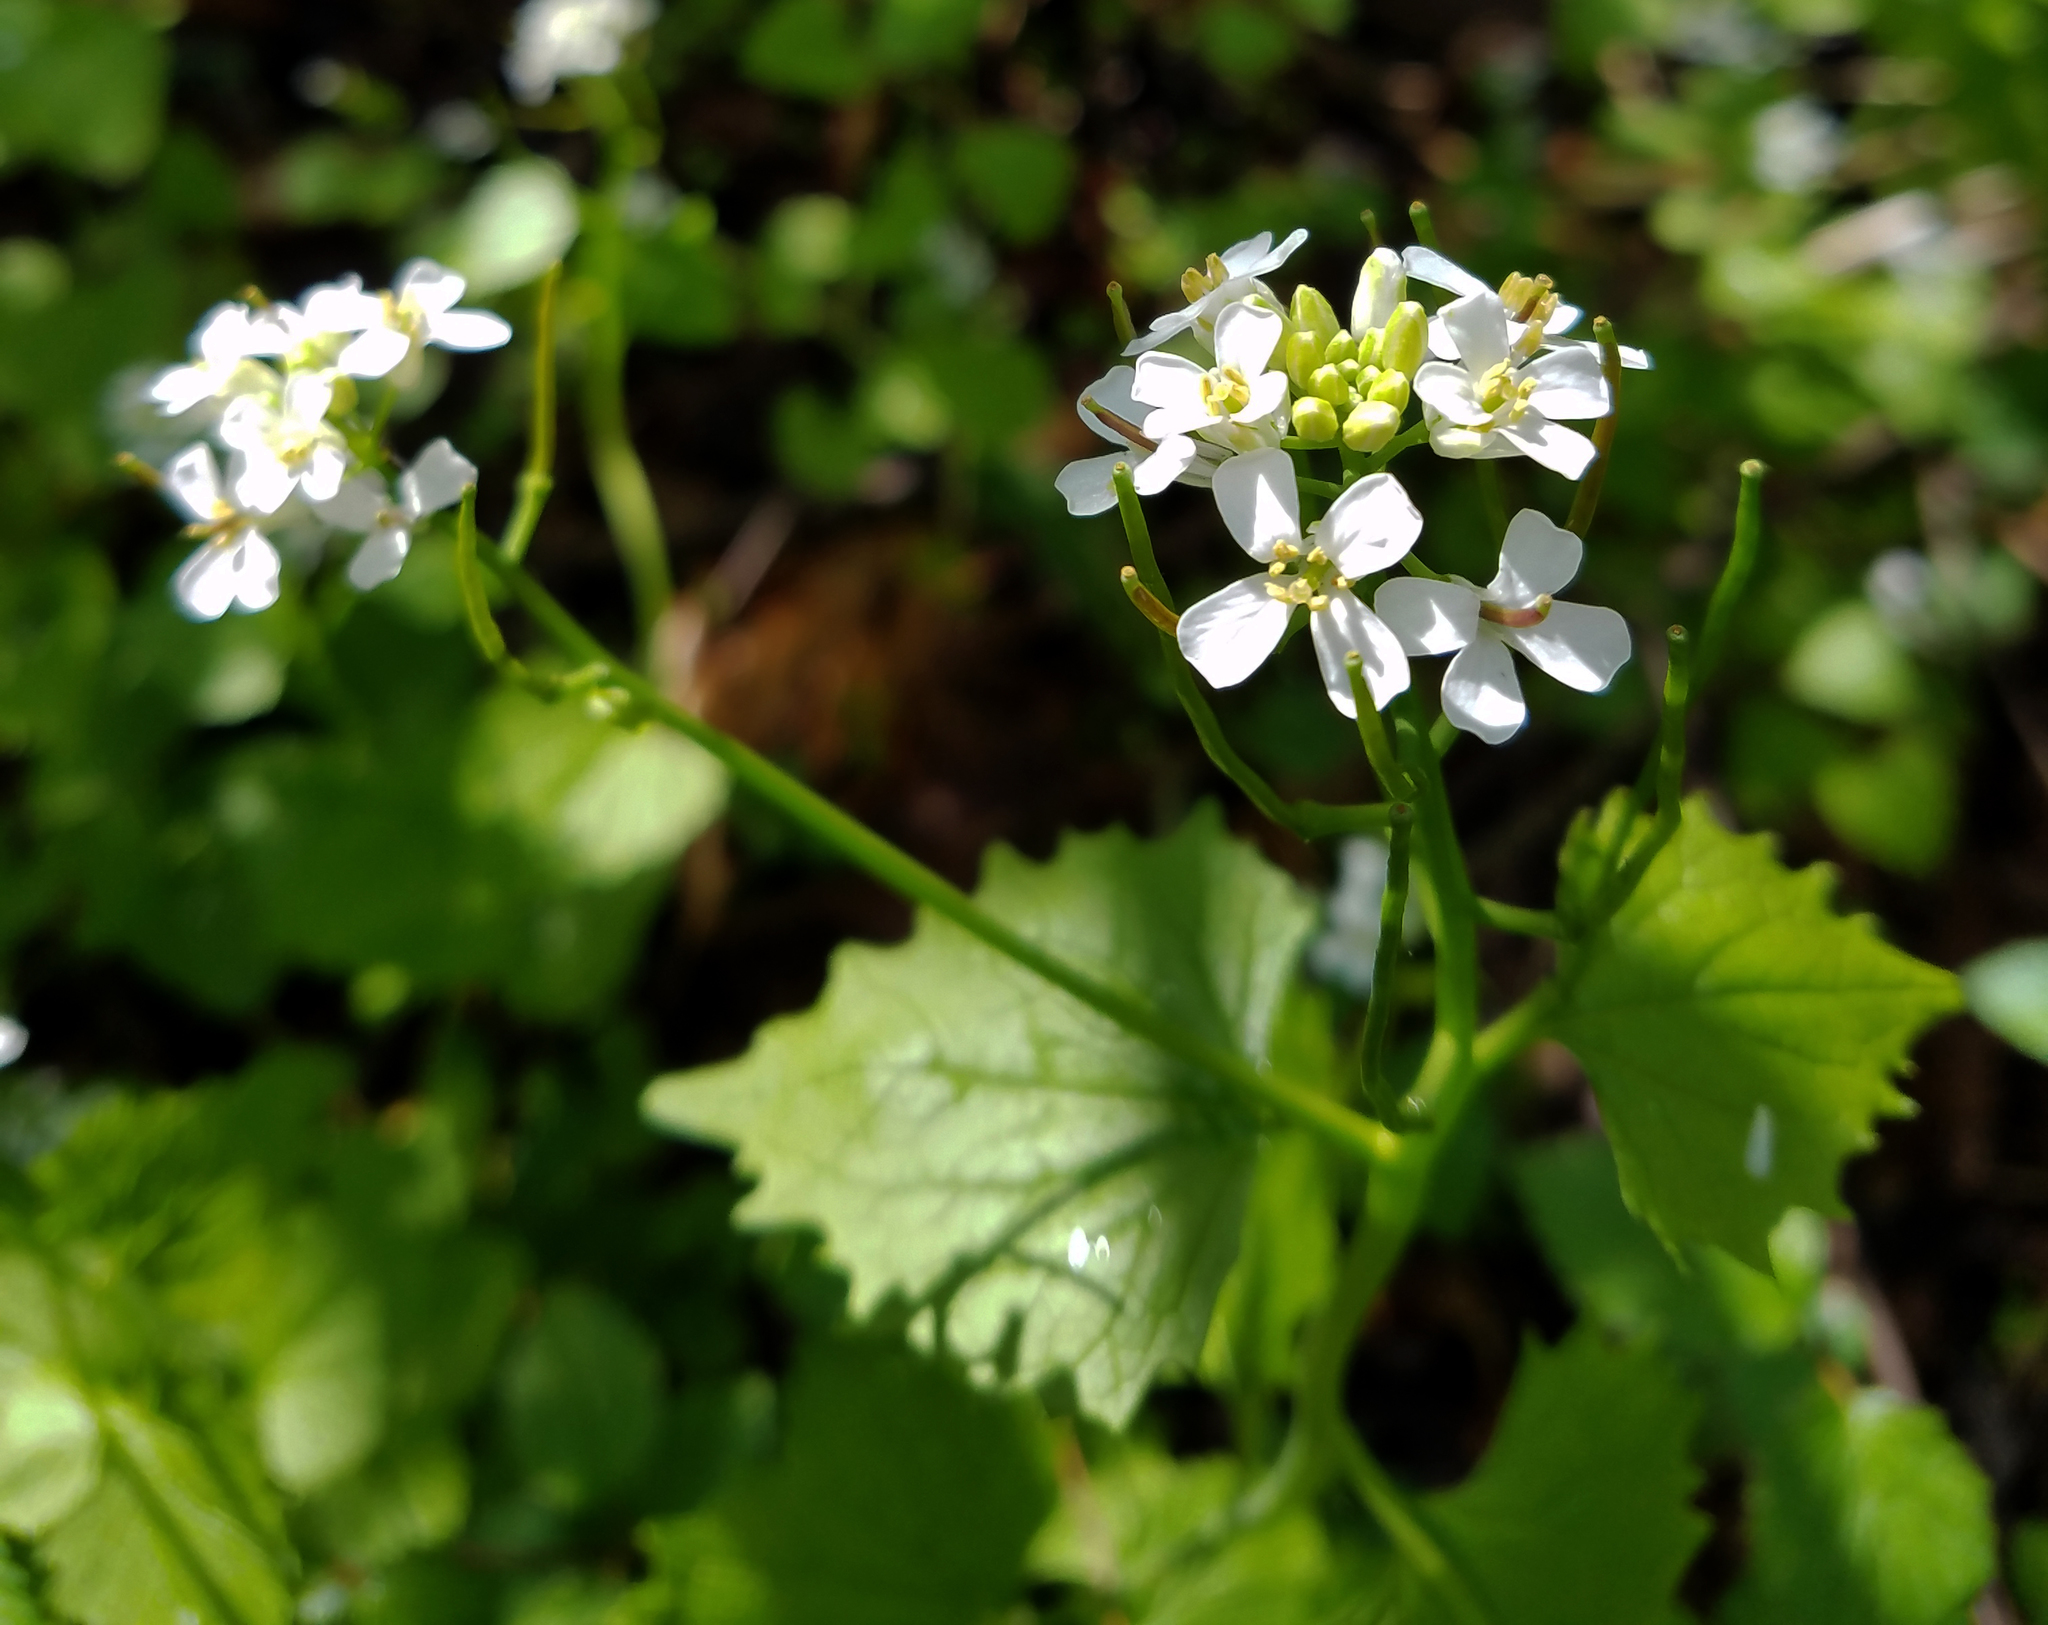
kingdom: Plantae
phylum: Tracheophyta
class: Magnoliopsida
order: Brassicales
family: Brassicaceae
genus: Alliaria
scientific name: Alliaria petiolata
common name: Garlic mustard
